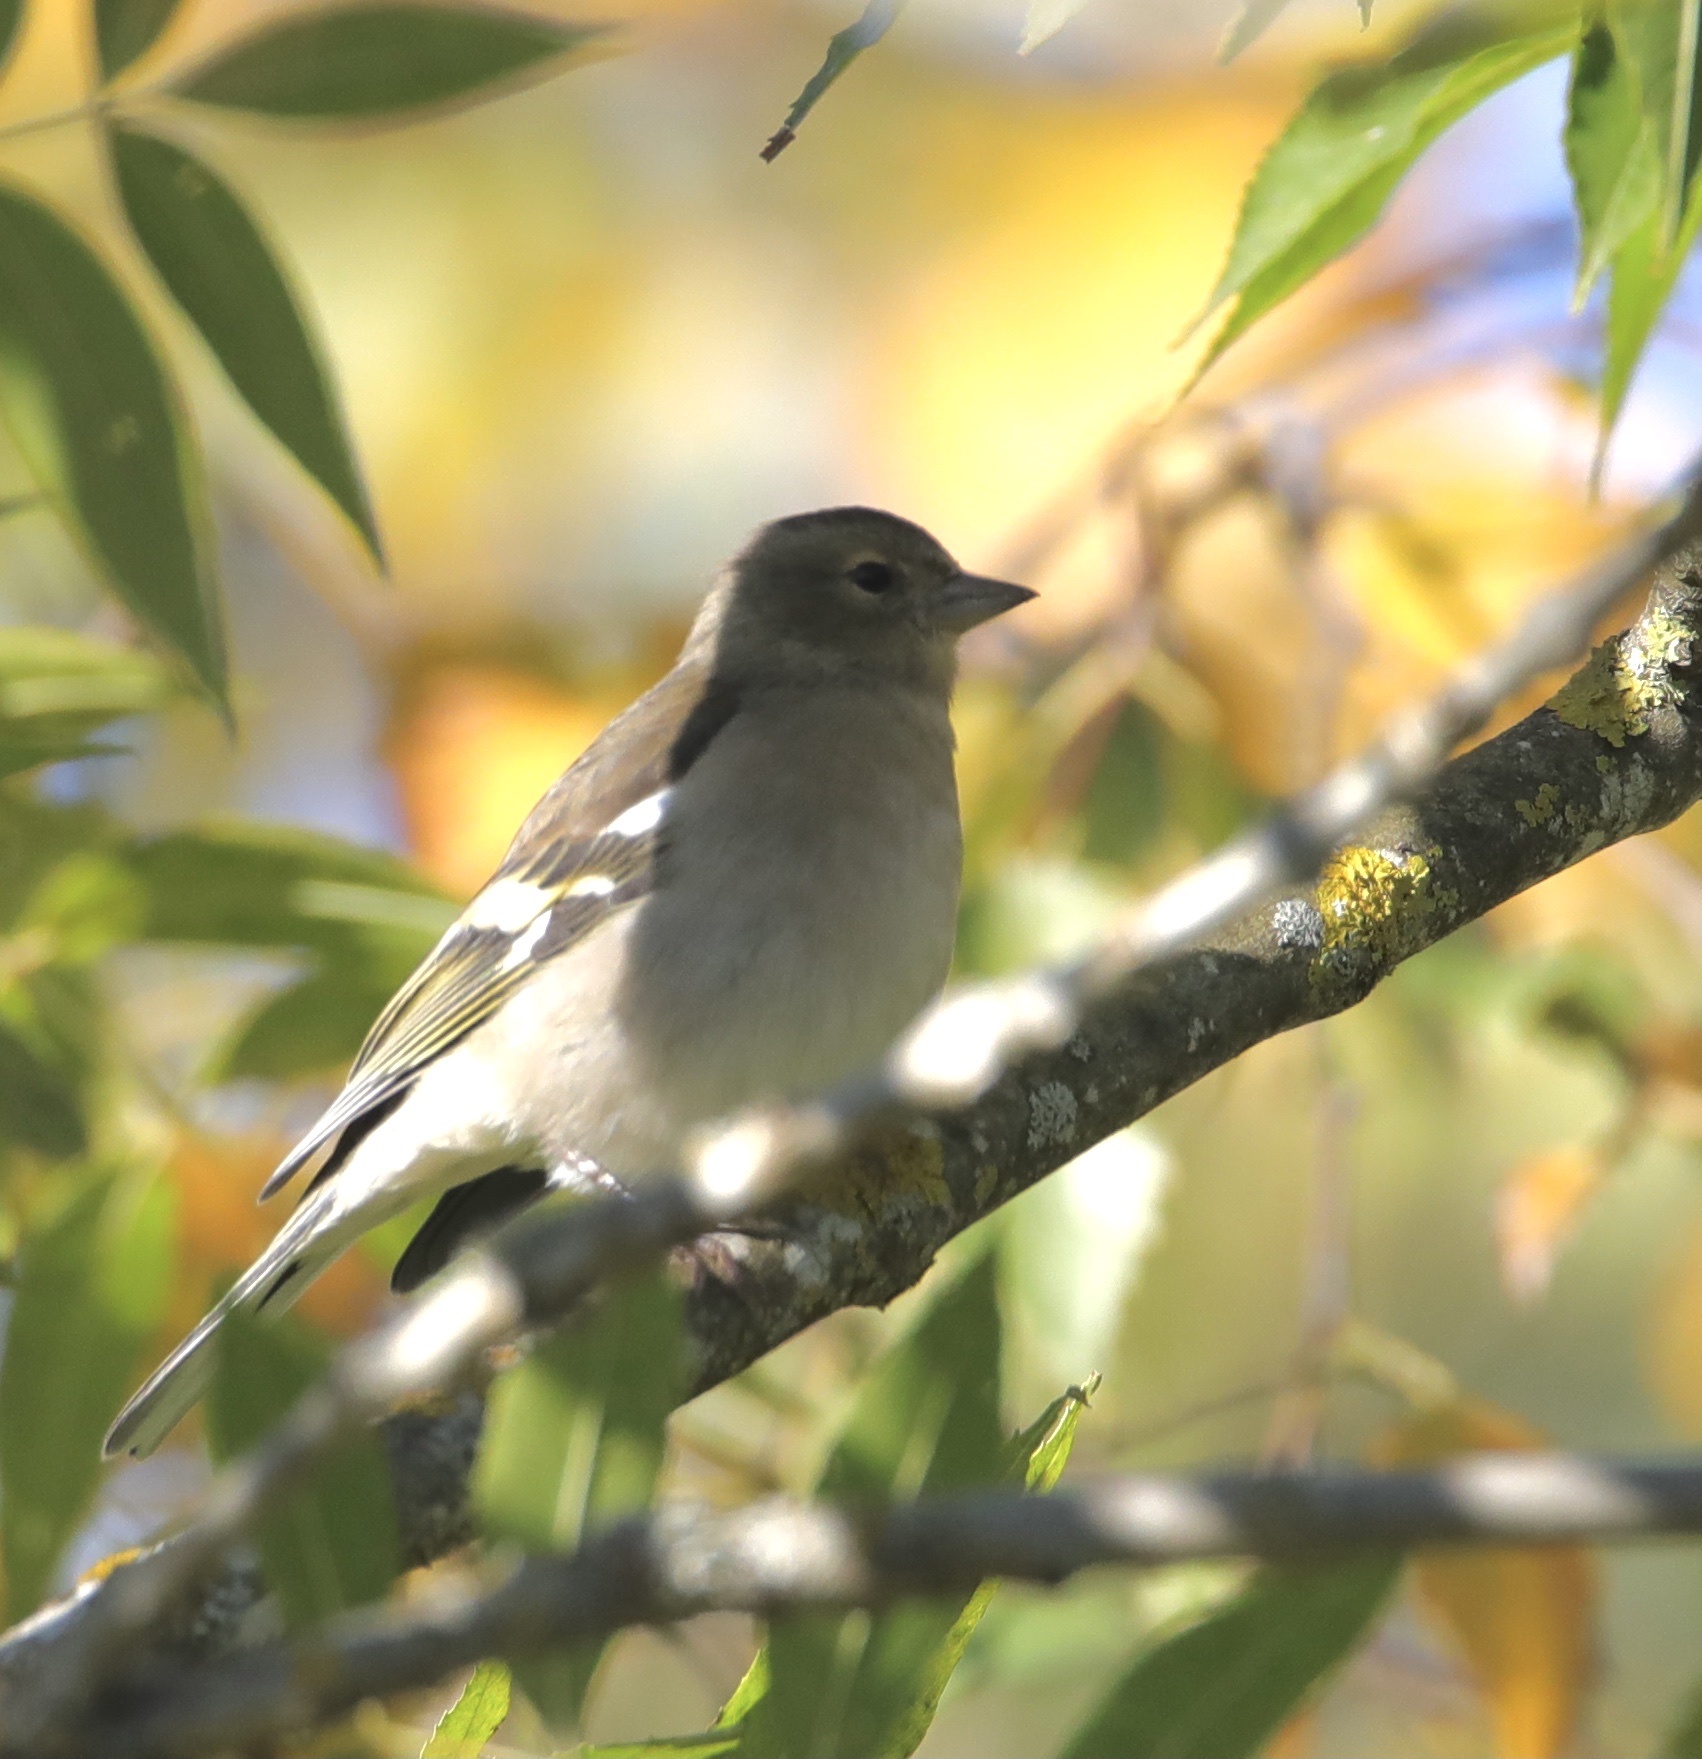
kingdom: Animalia
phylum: Chordata
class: Aves
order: Passeriformes
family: Fringillidae
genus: Fringilla
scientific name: Fringilla coelebs
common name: Common chaffinch
